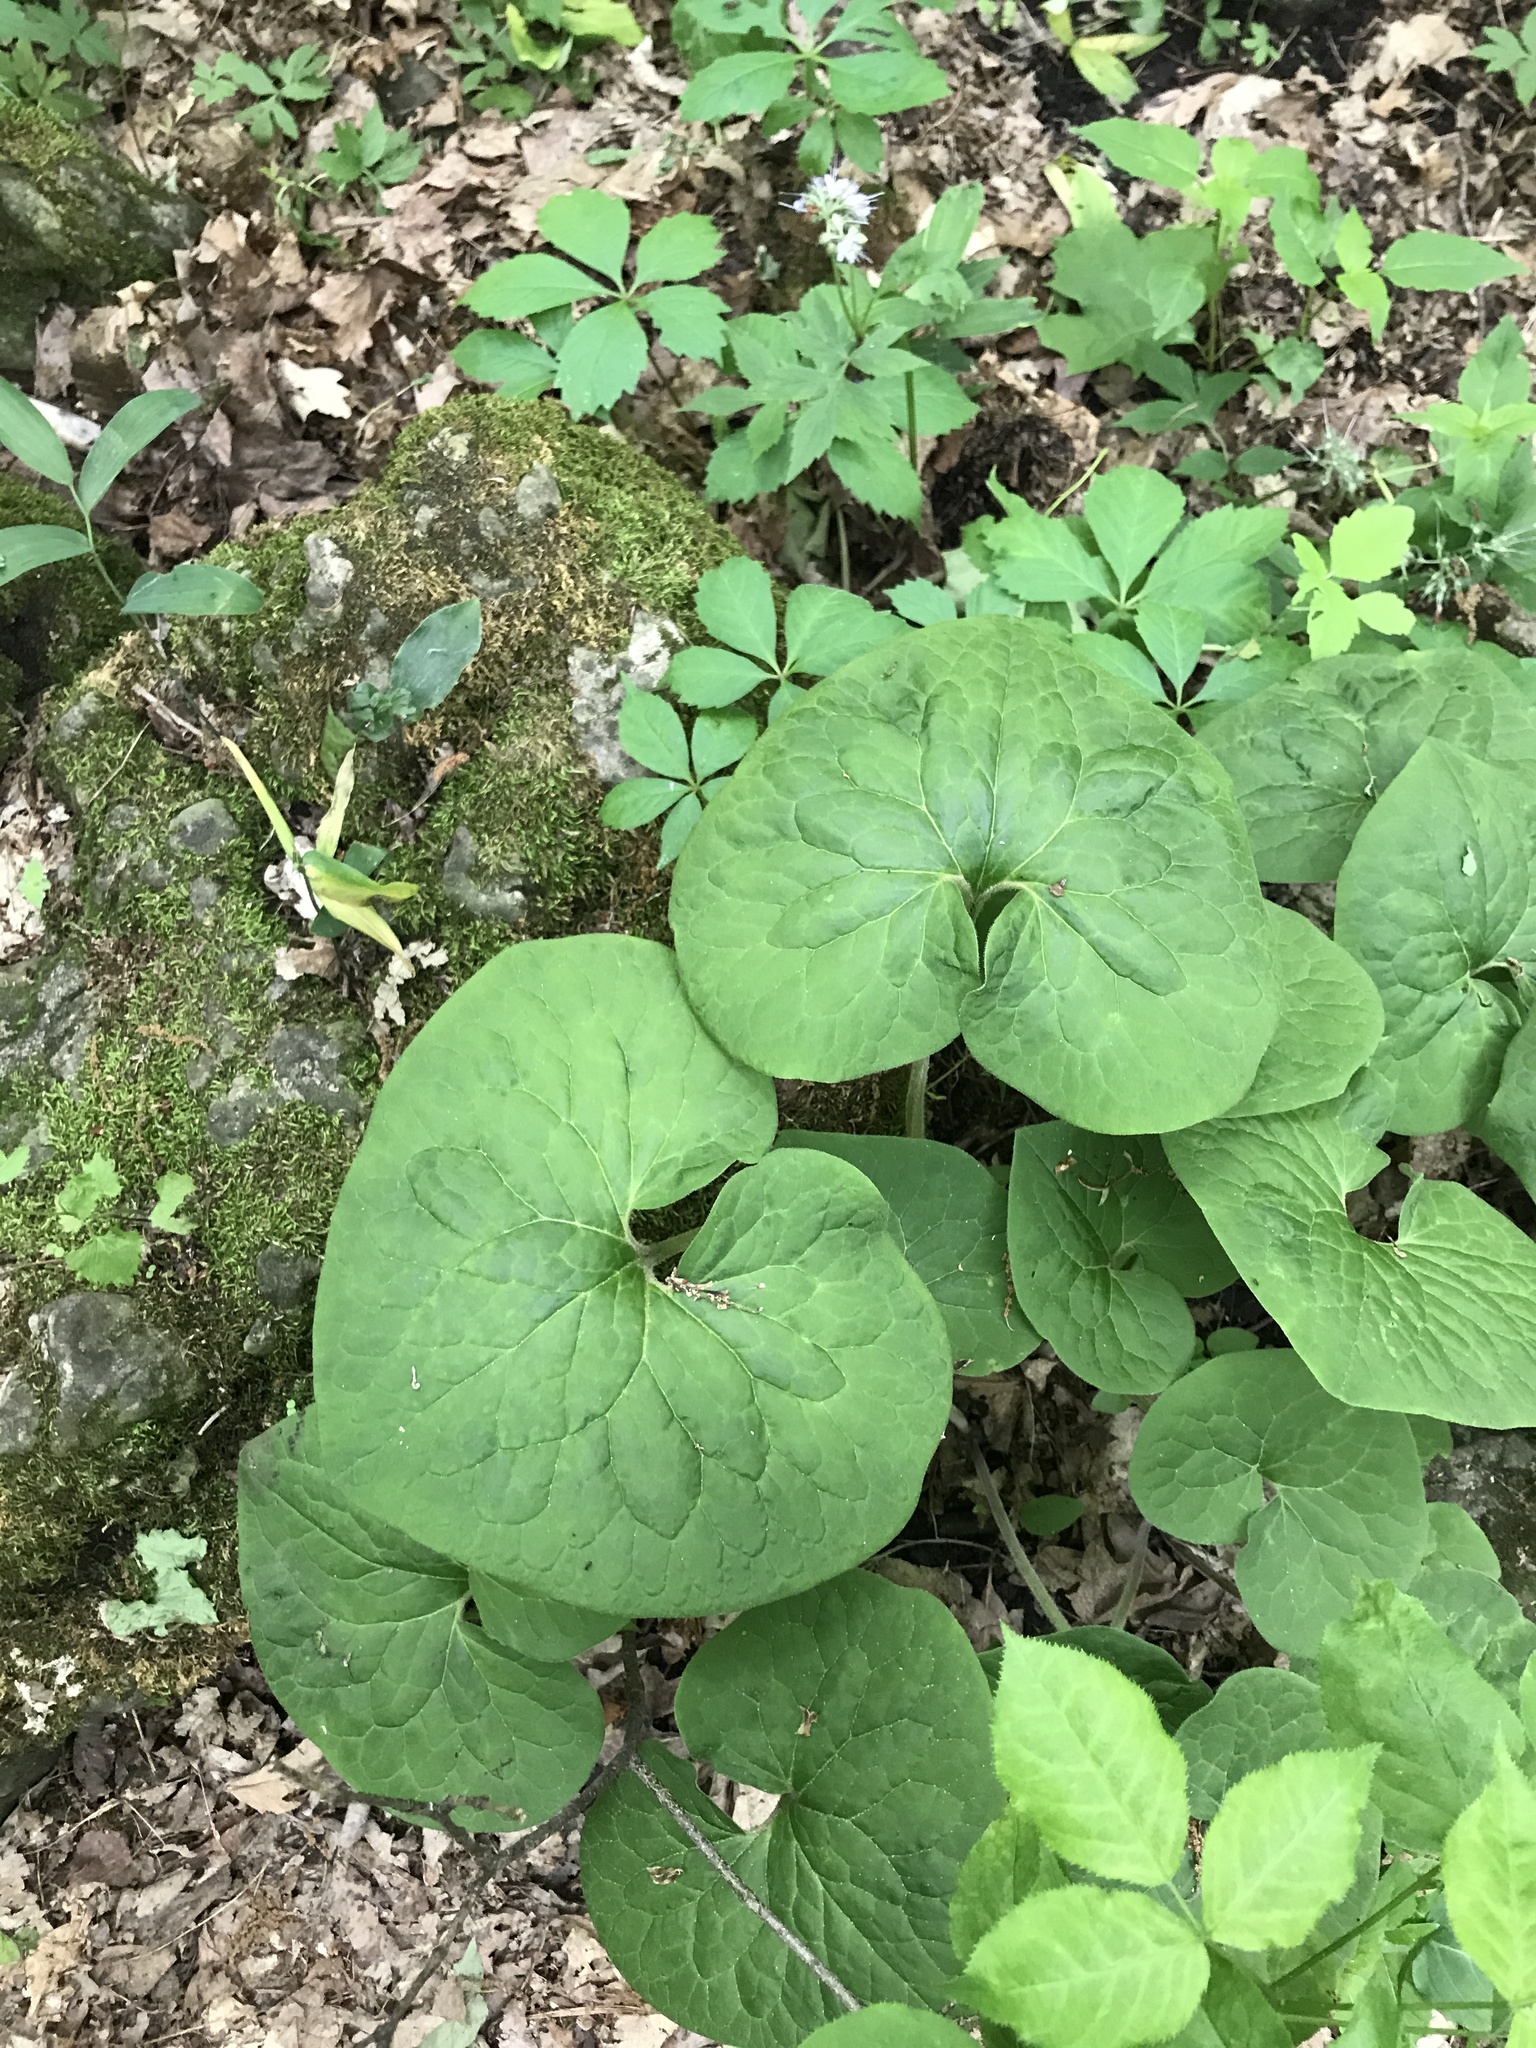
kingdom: Plantae
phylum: Tracheophyta
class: Magnoliopsida
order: Piperales
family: Aristolochiaceae
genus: Asarum
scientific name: Asarum canadense
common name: Wild ginger
